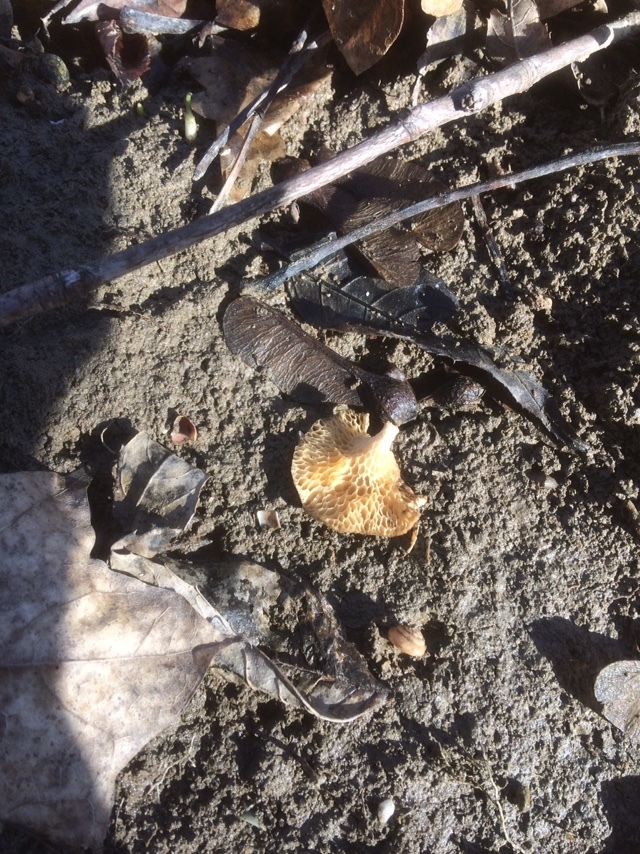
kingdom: Fungi
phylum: Basidiomycota
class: Agaricomycetes
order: Polyporales
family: Polyporaceae
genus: Neofavolus
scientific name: Neofavolus alveolaris
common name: Hexagonal-pored polypore
